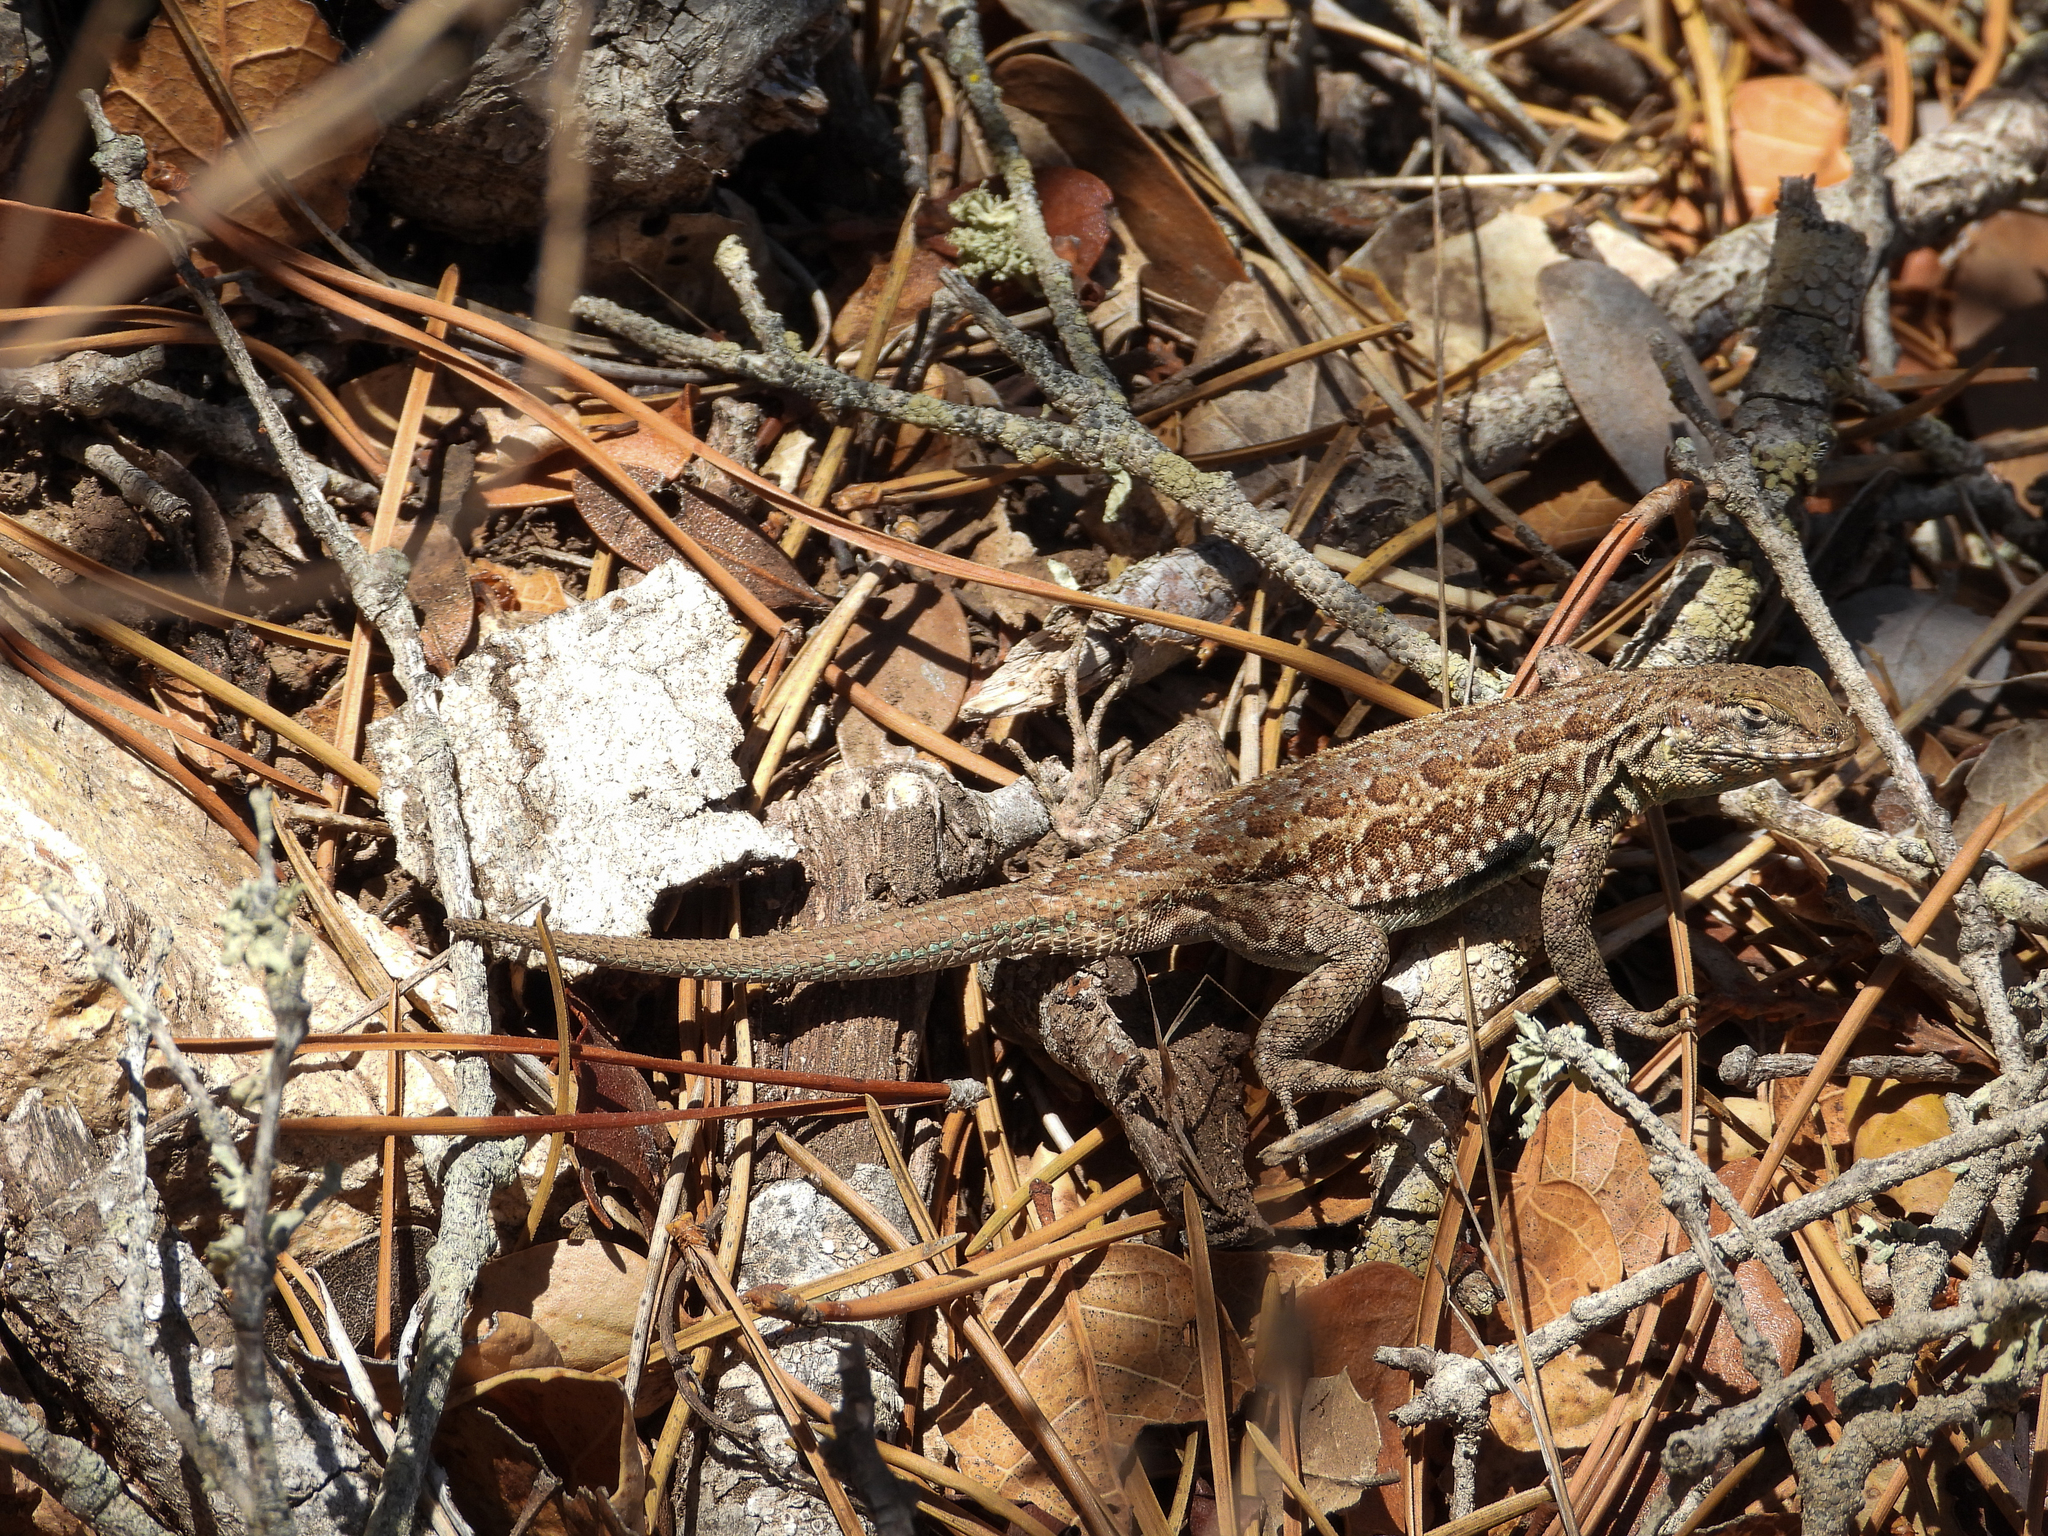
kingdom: Animalia
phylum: Chordata
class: Squamata
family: Phrynosomatidae
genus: Uta
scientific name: Uta stansburiana
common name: Side-blotched lizard
